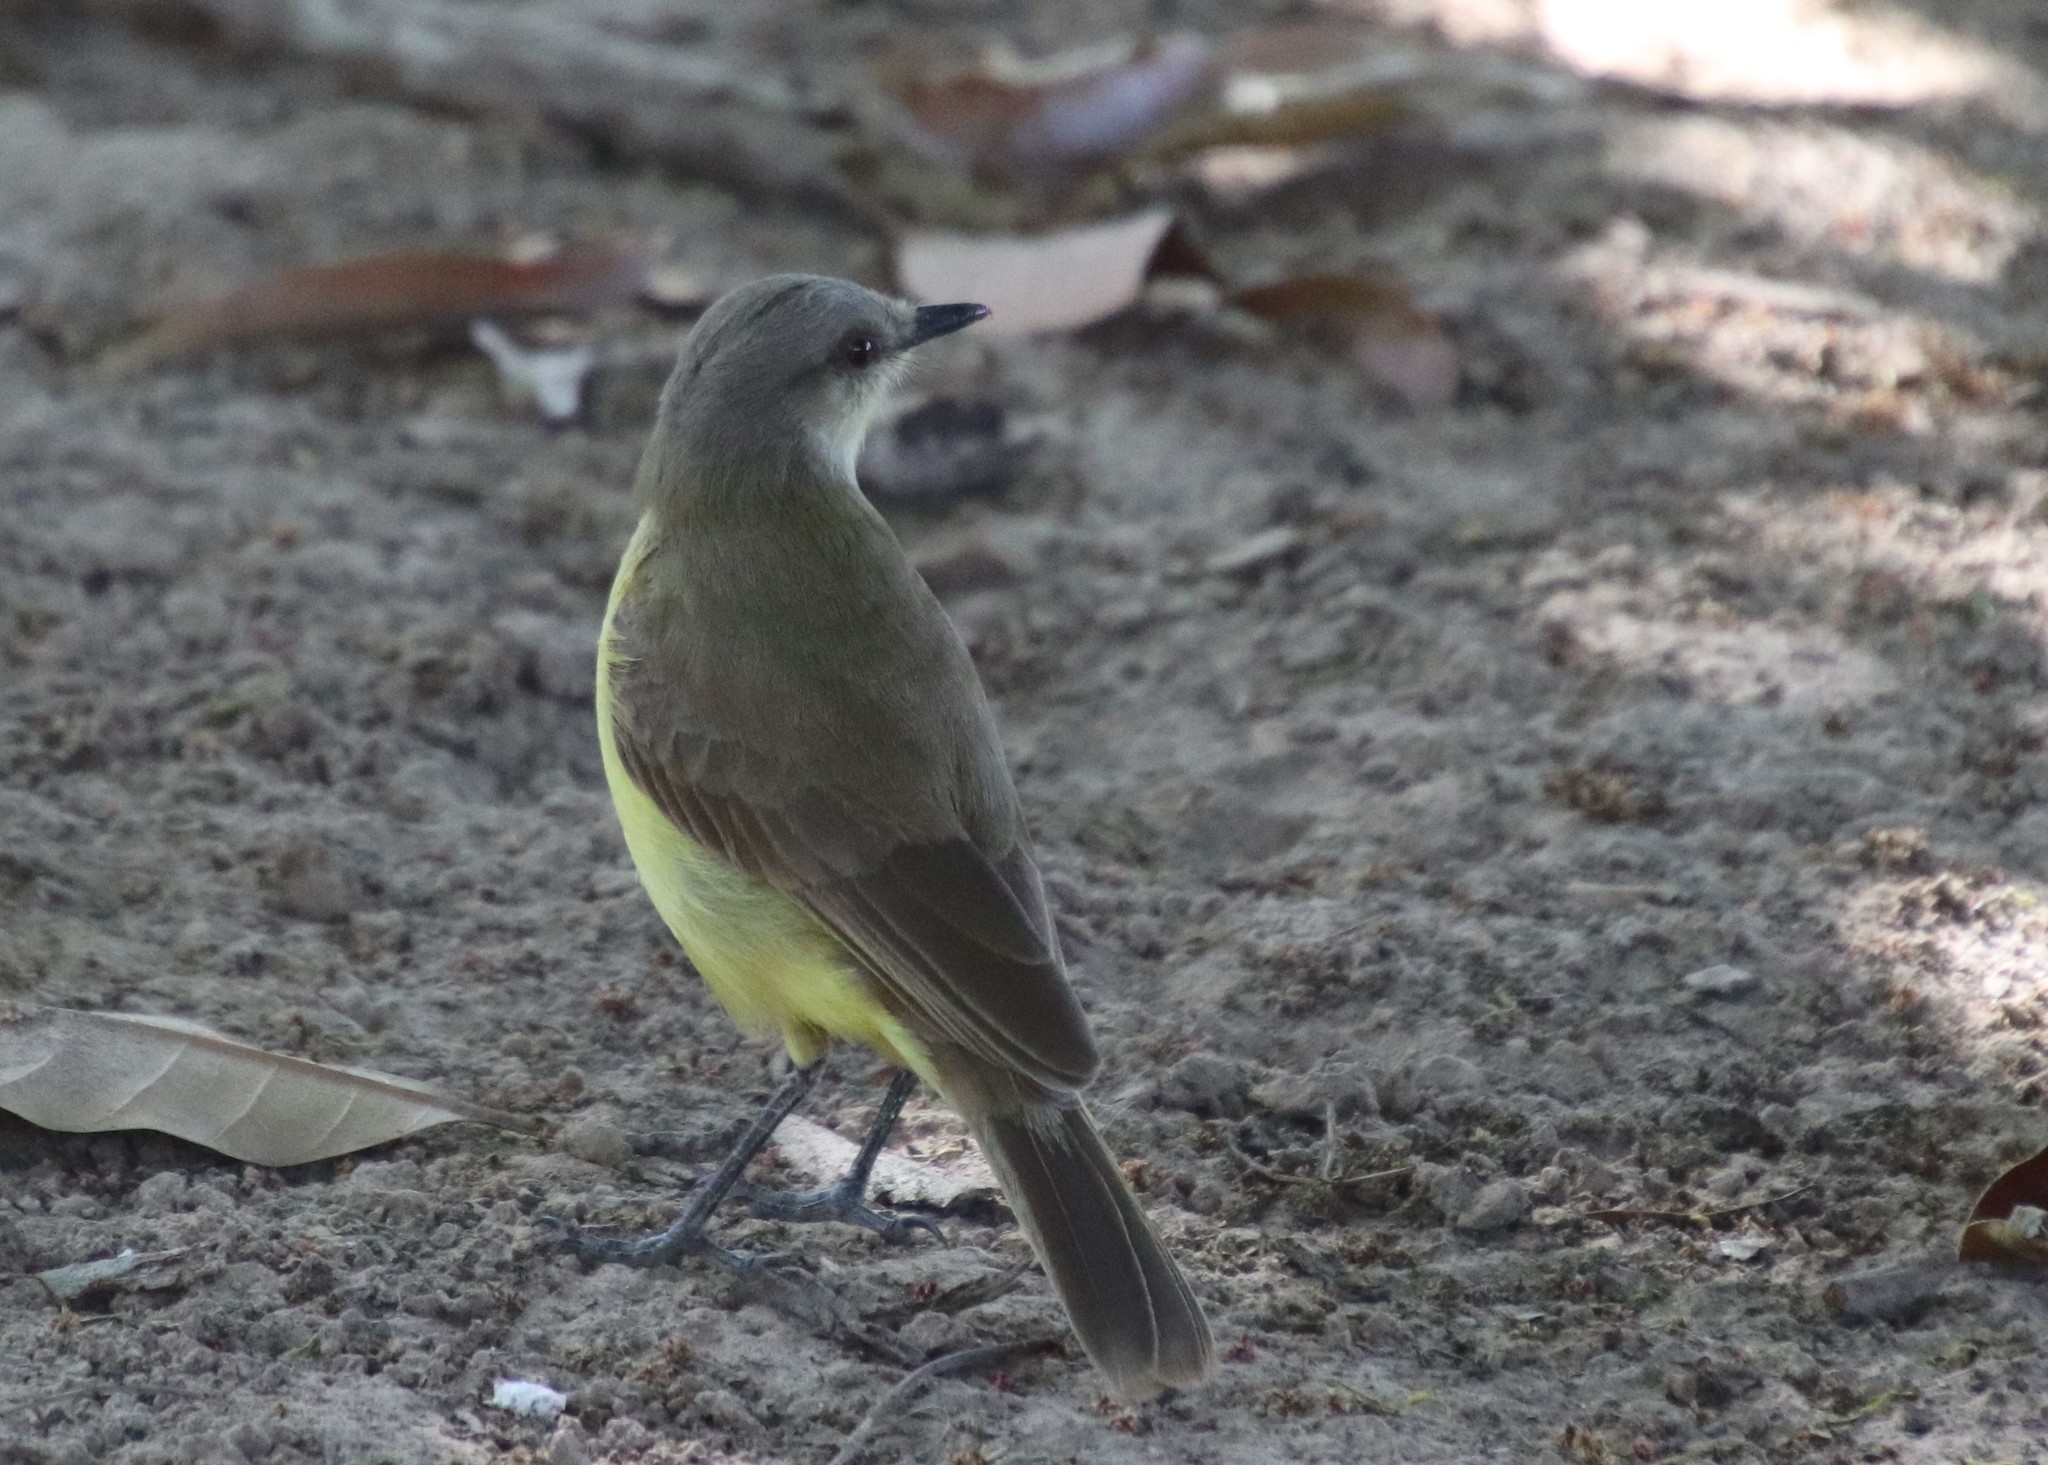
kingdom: Animalia
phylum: Chordata
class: Aves
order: Passeriformes
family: Tyrannidae
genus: Machetornis
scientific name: Machetornis rixosa
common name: Cattle tyrant
